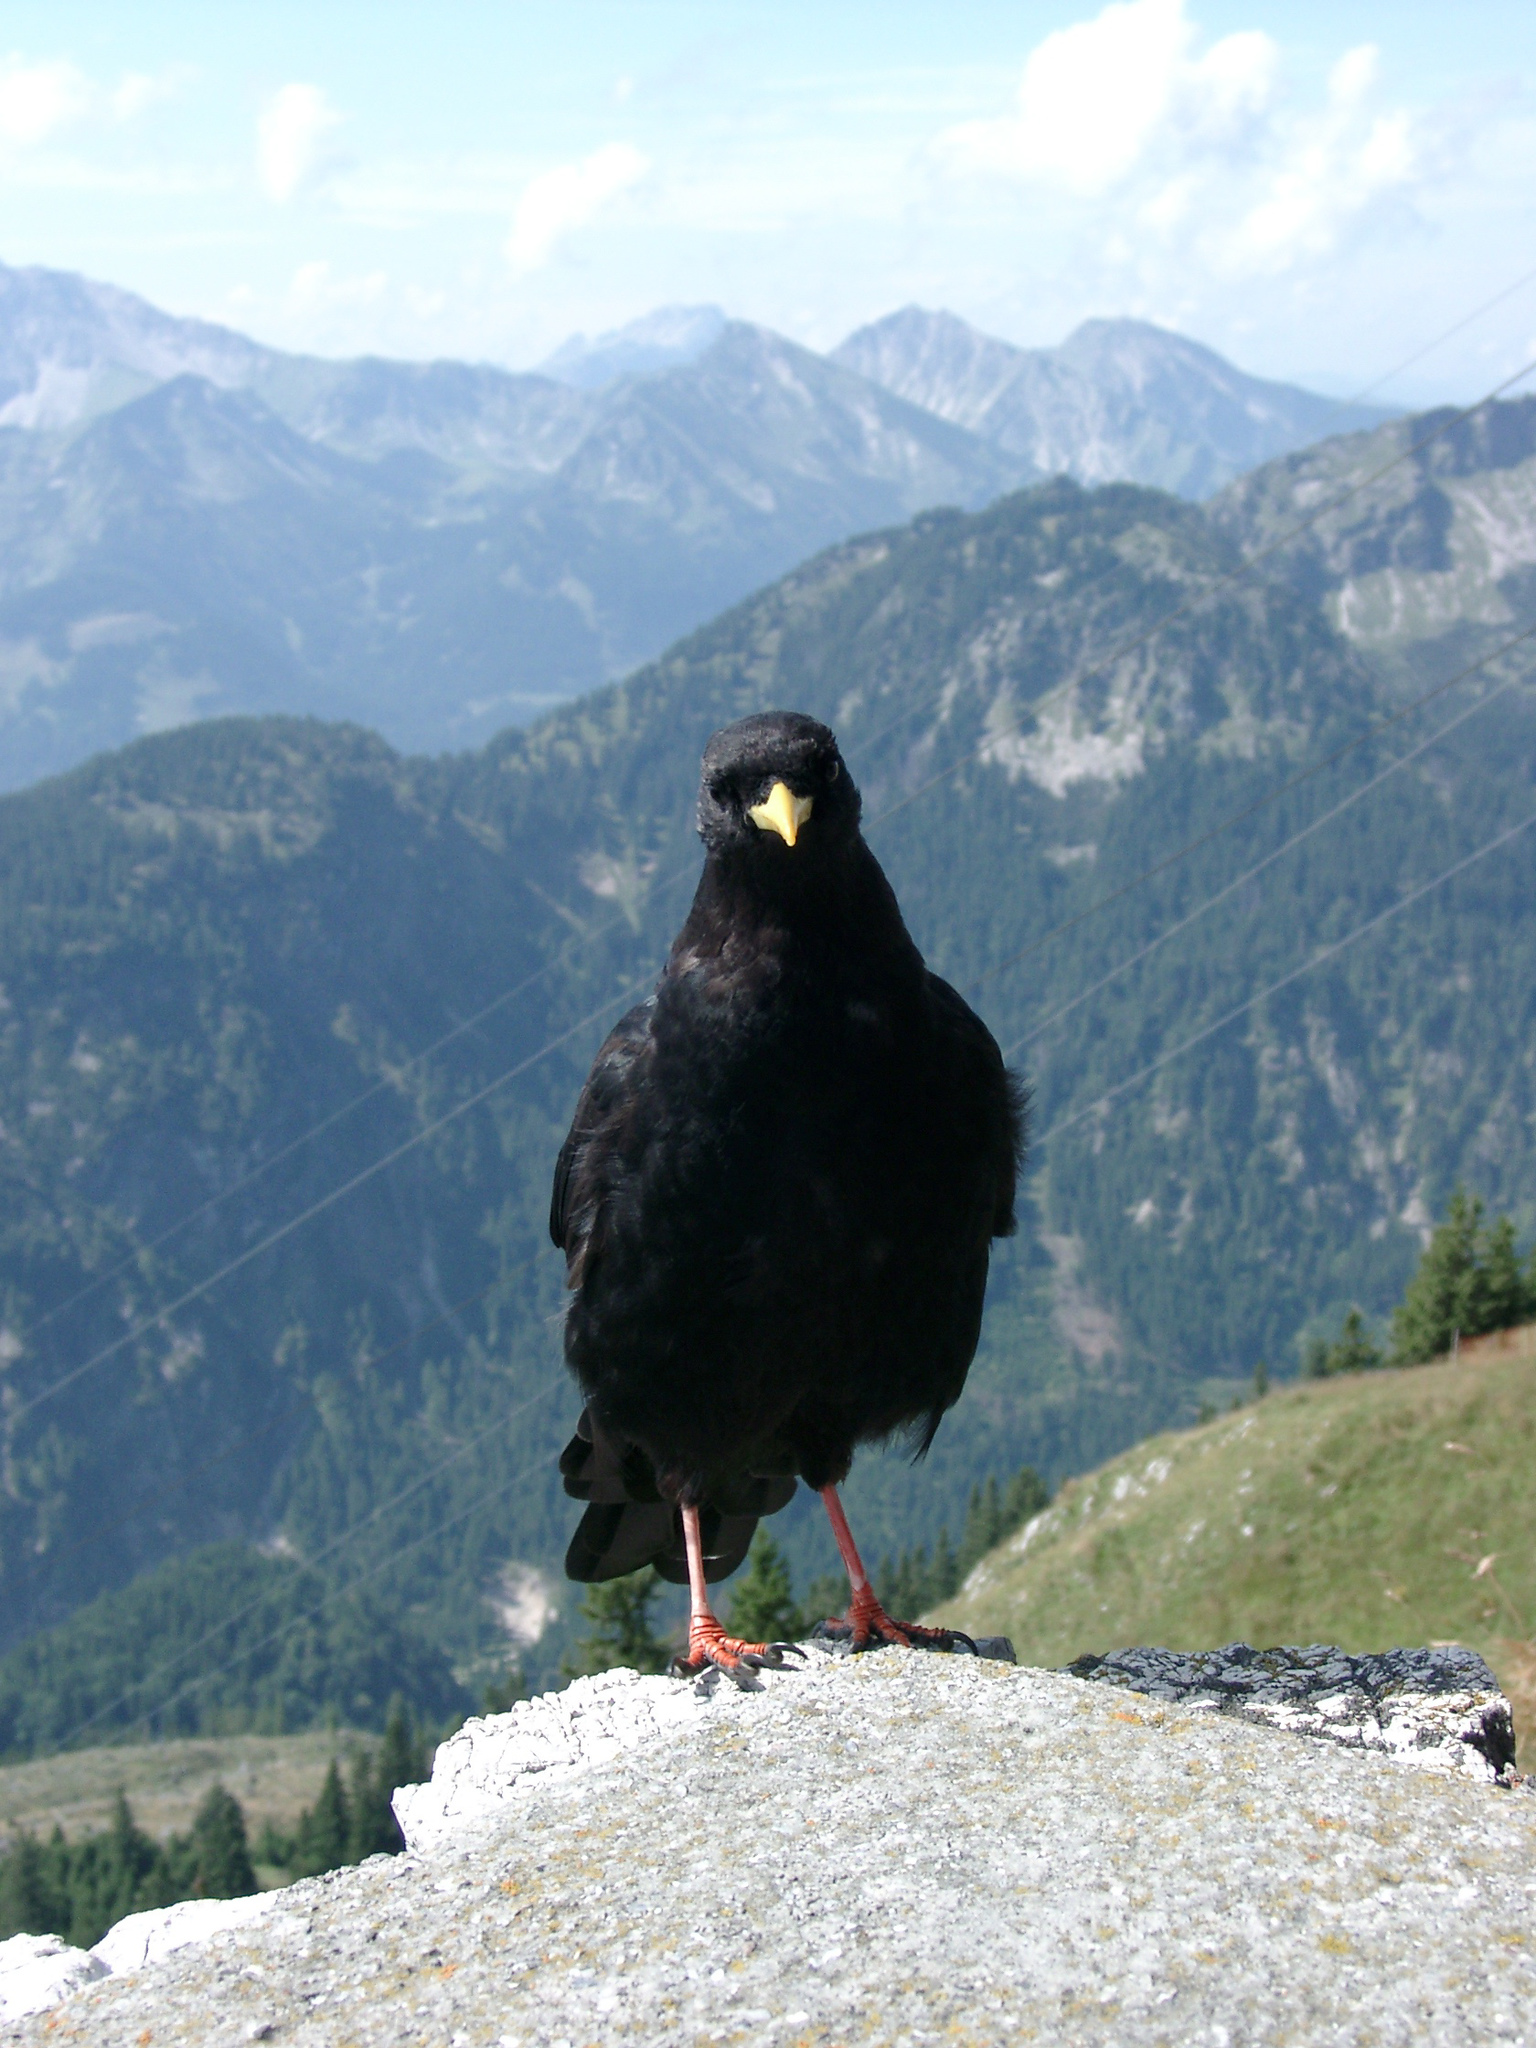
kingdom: Animalia
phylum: Chordata
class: Aves
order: Passeriformes
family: Corvidae
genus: Pyrrhocorax
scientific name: Pyrrhocorax graculus
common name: Alpine chough
